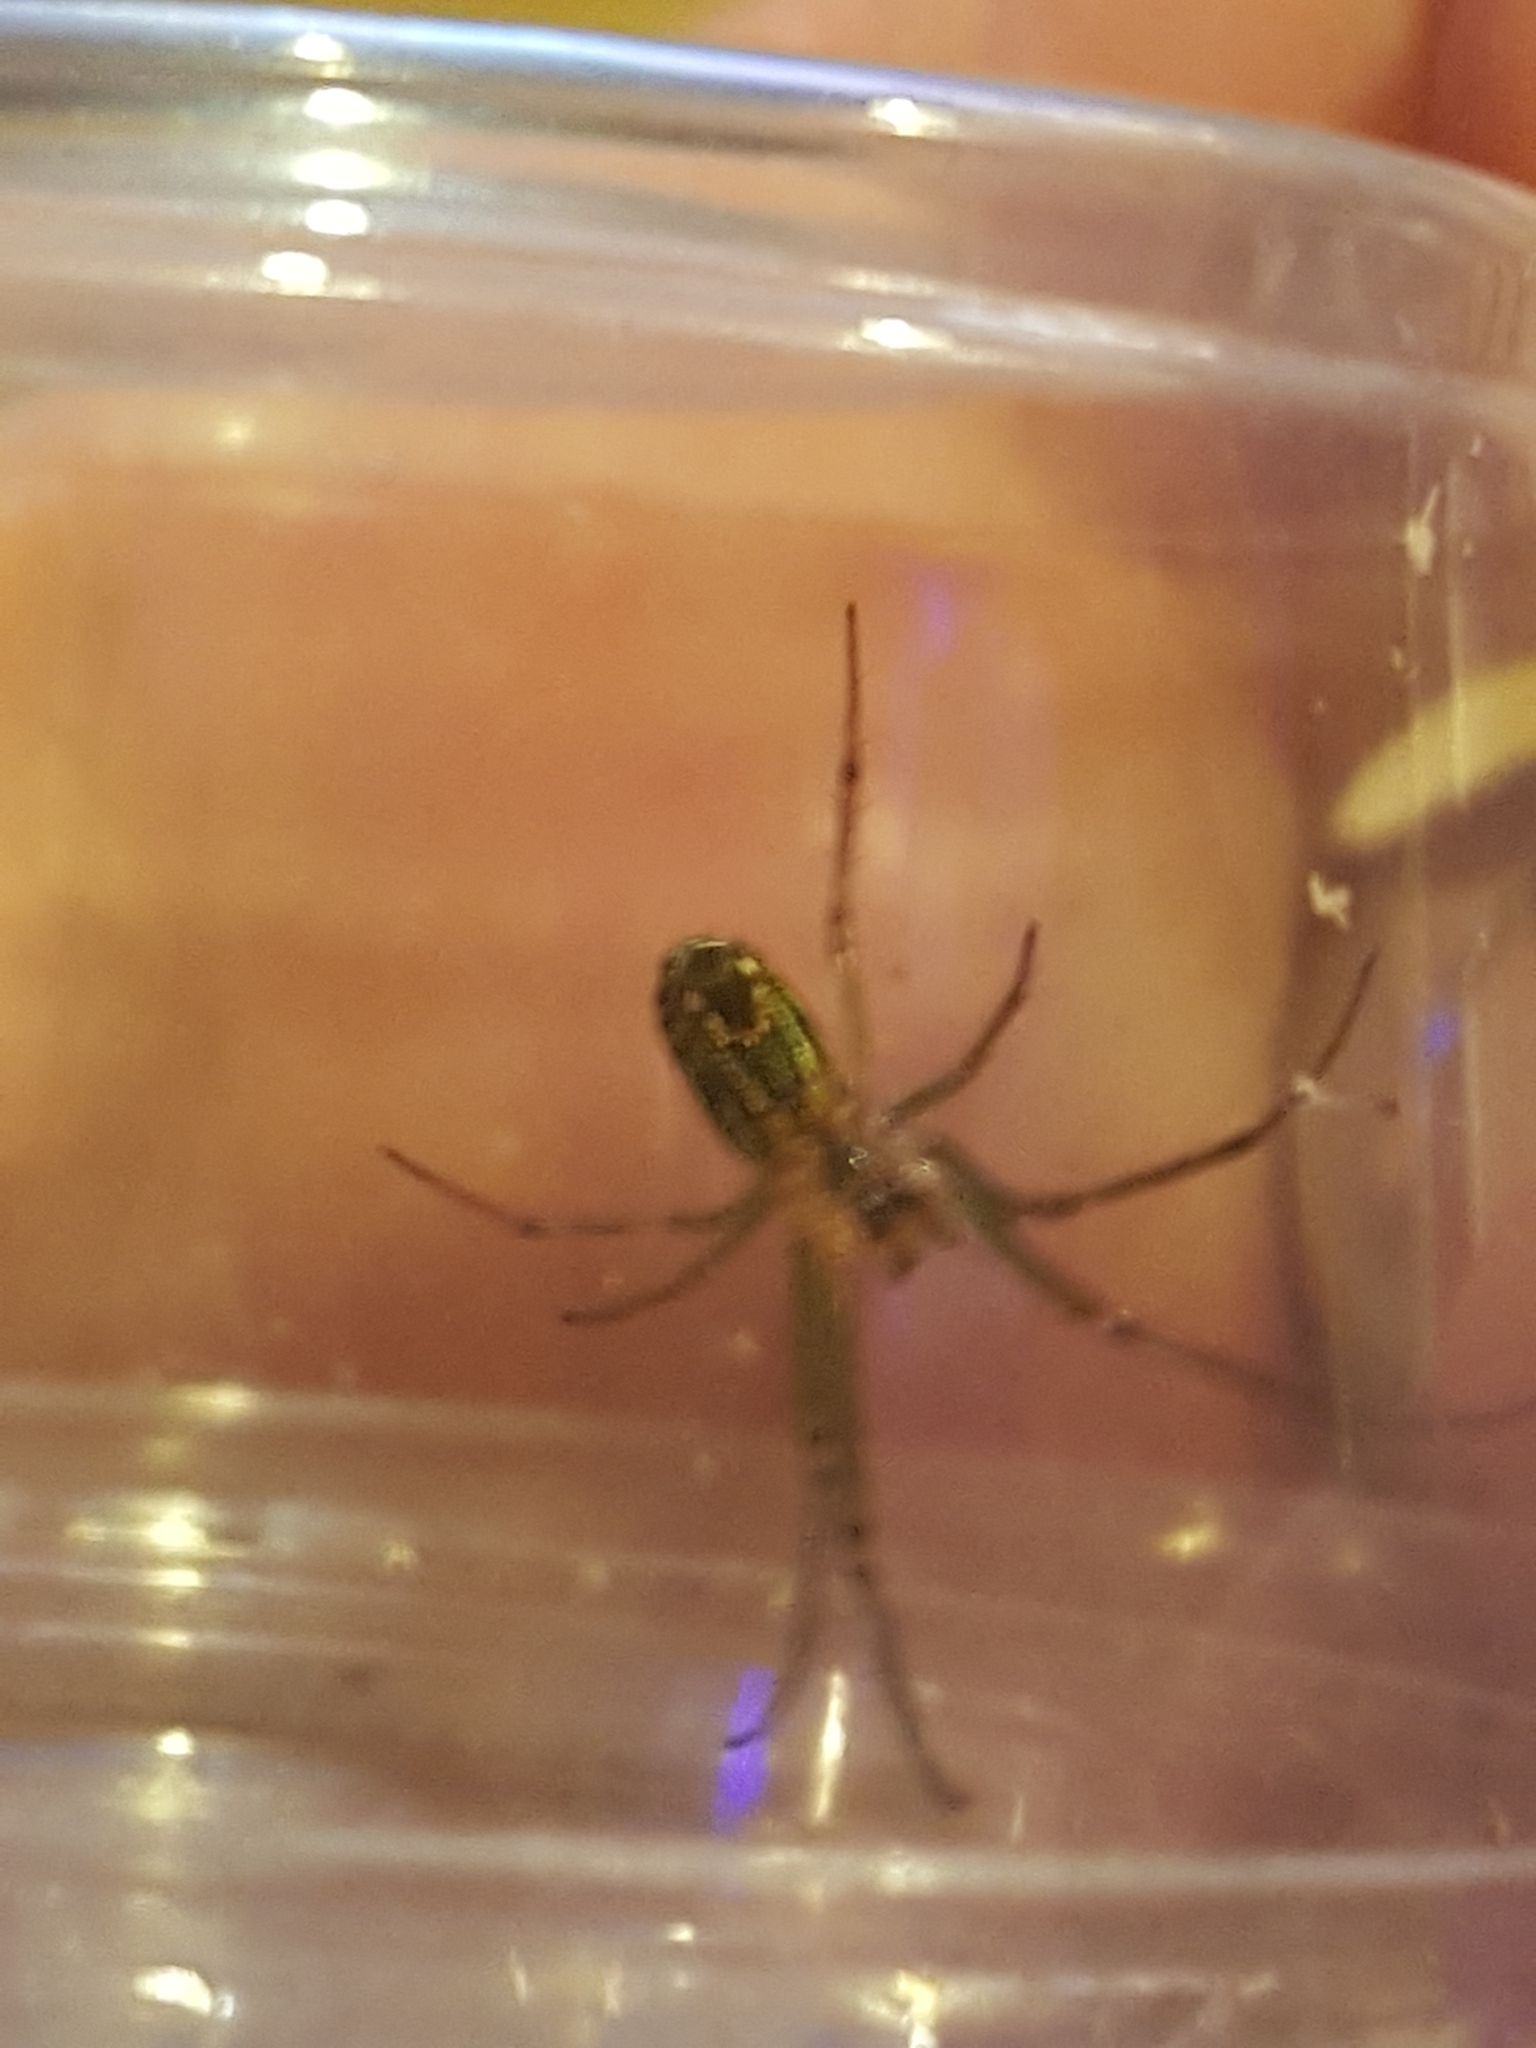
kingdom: Animalia
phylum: Arthropoda
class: Arachnida
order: Araneae
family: Tetragnathidae
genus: Leucauge
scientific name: Leucauge venusta
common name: Longjawed orb weavers
